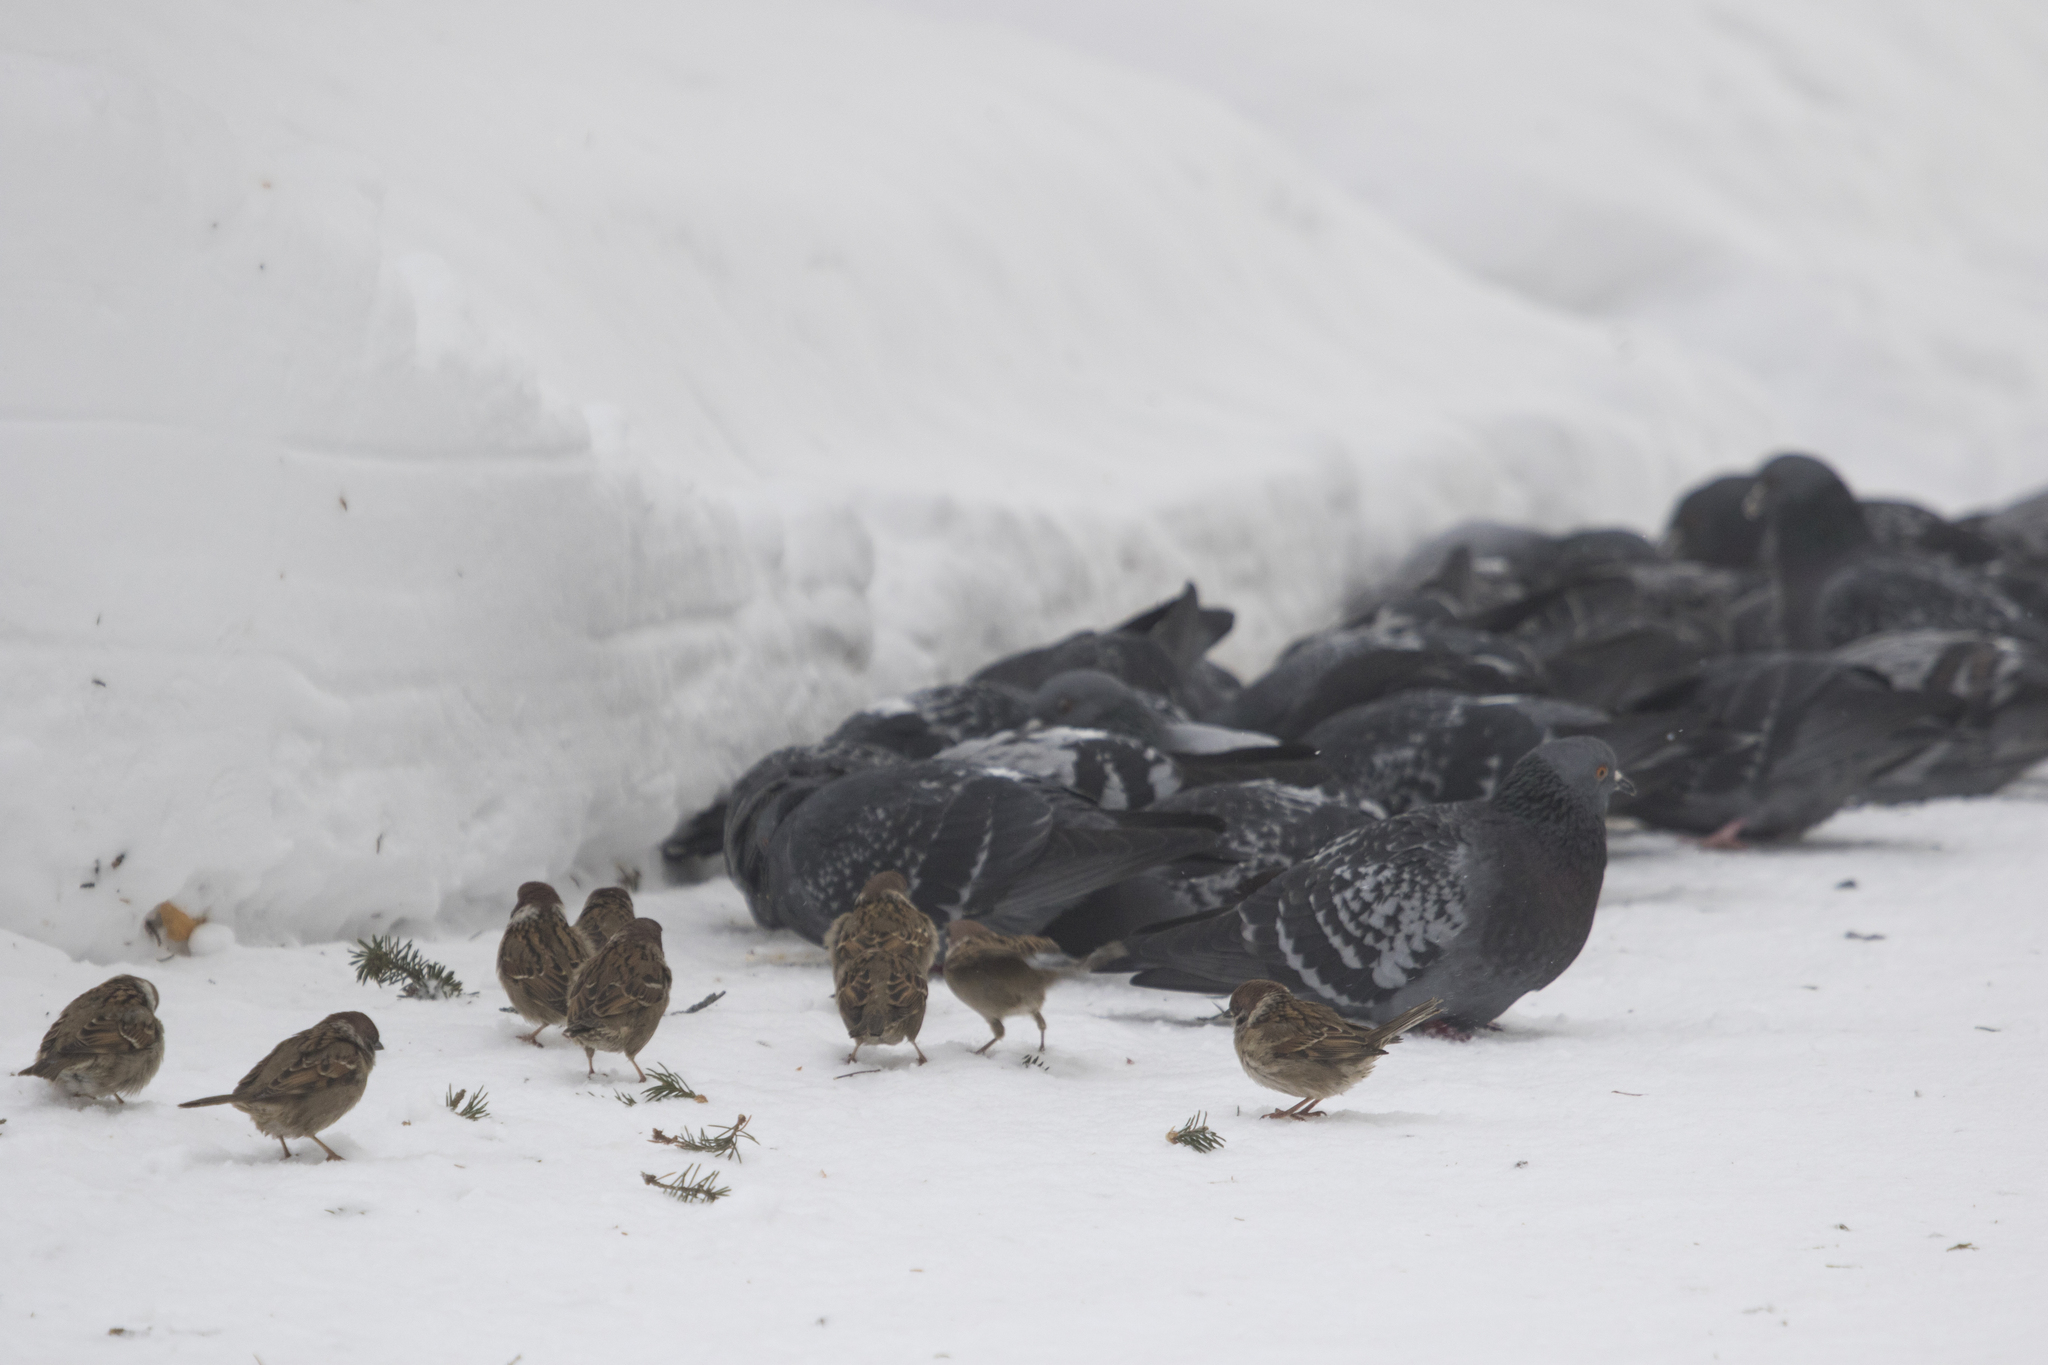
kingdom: Animalia
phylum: Chordata
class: Aves
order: Passeriformes
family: Passeridae
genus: Passer
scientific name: Passer montanus
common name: Eurasian tree sparrow
